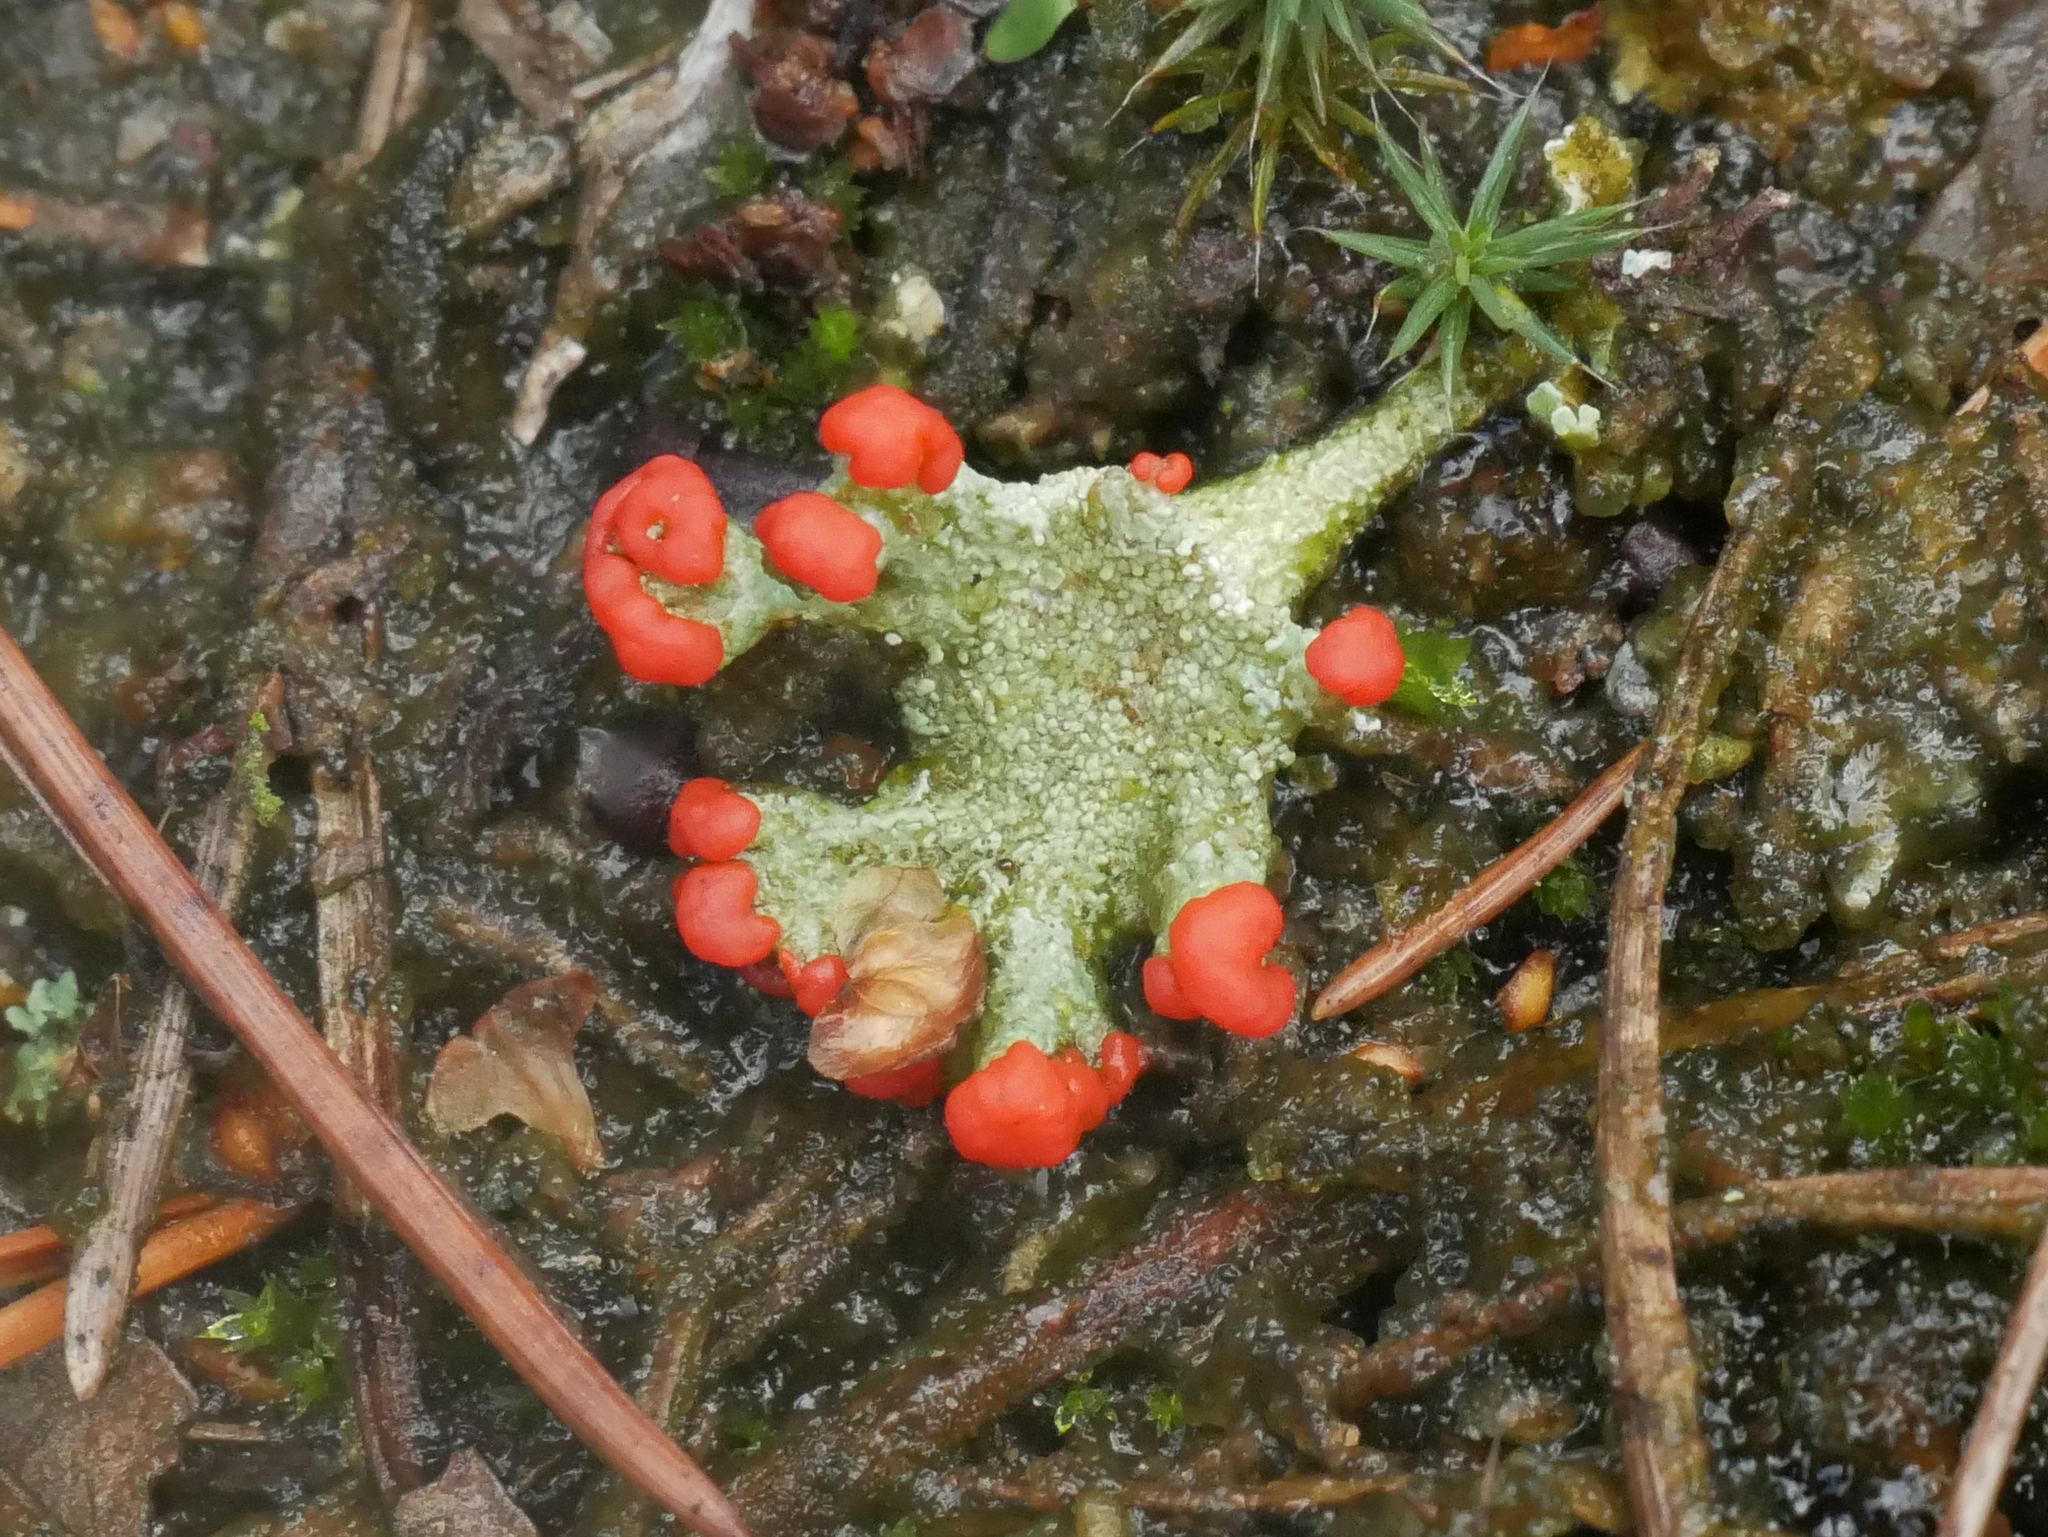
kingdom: Fungi
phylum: Ascomycota
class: Lecanoromycetes
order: Lecanorales
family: Cladoniaceae
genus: Cladonia
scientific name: Cladonia
